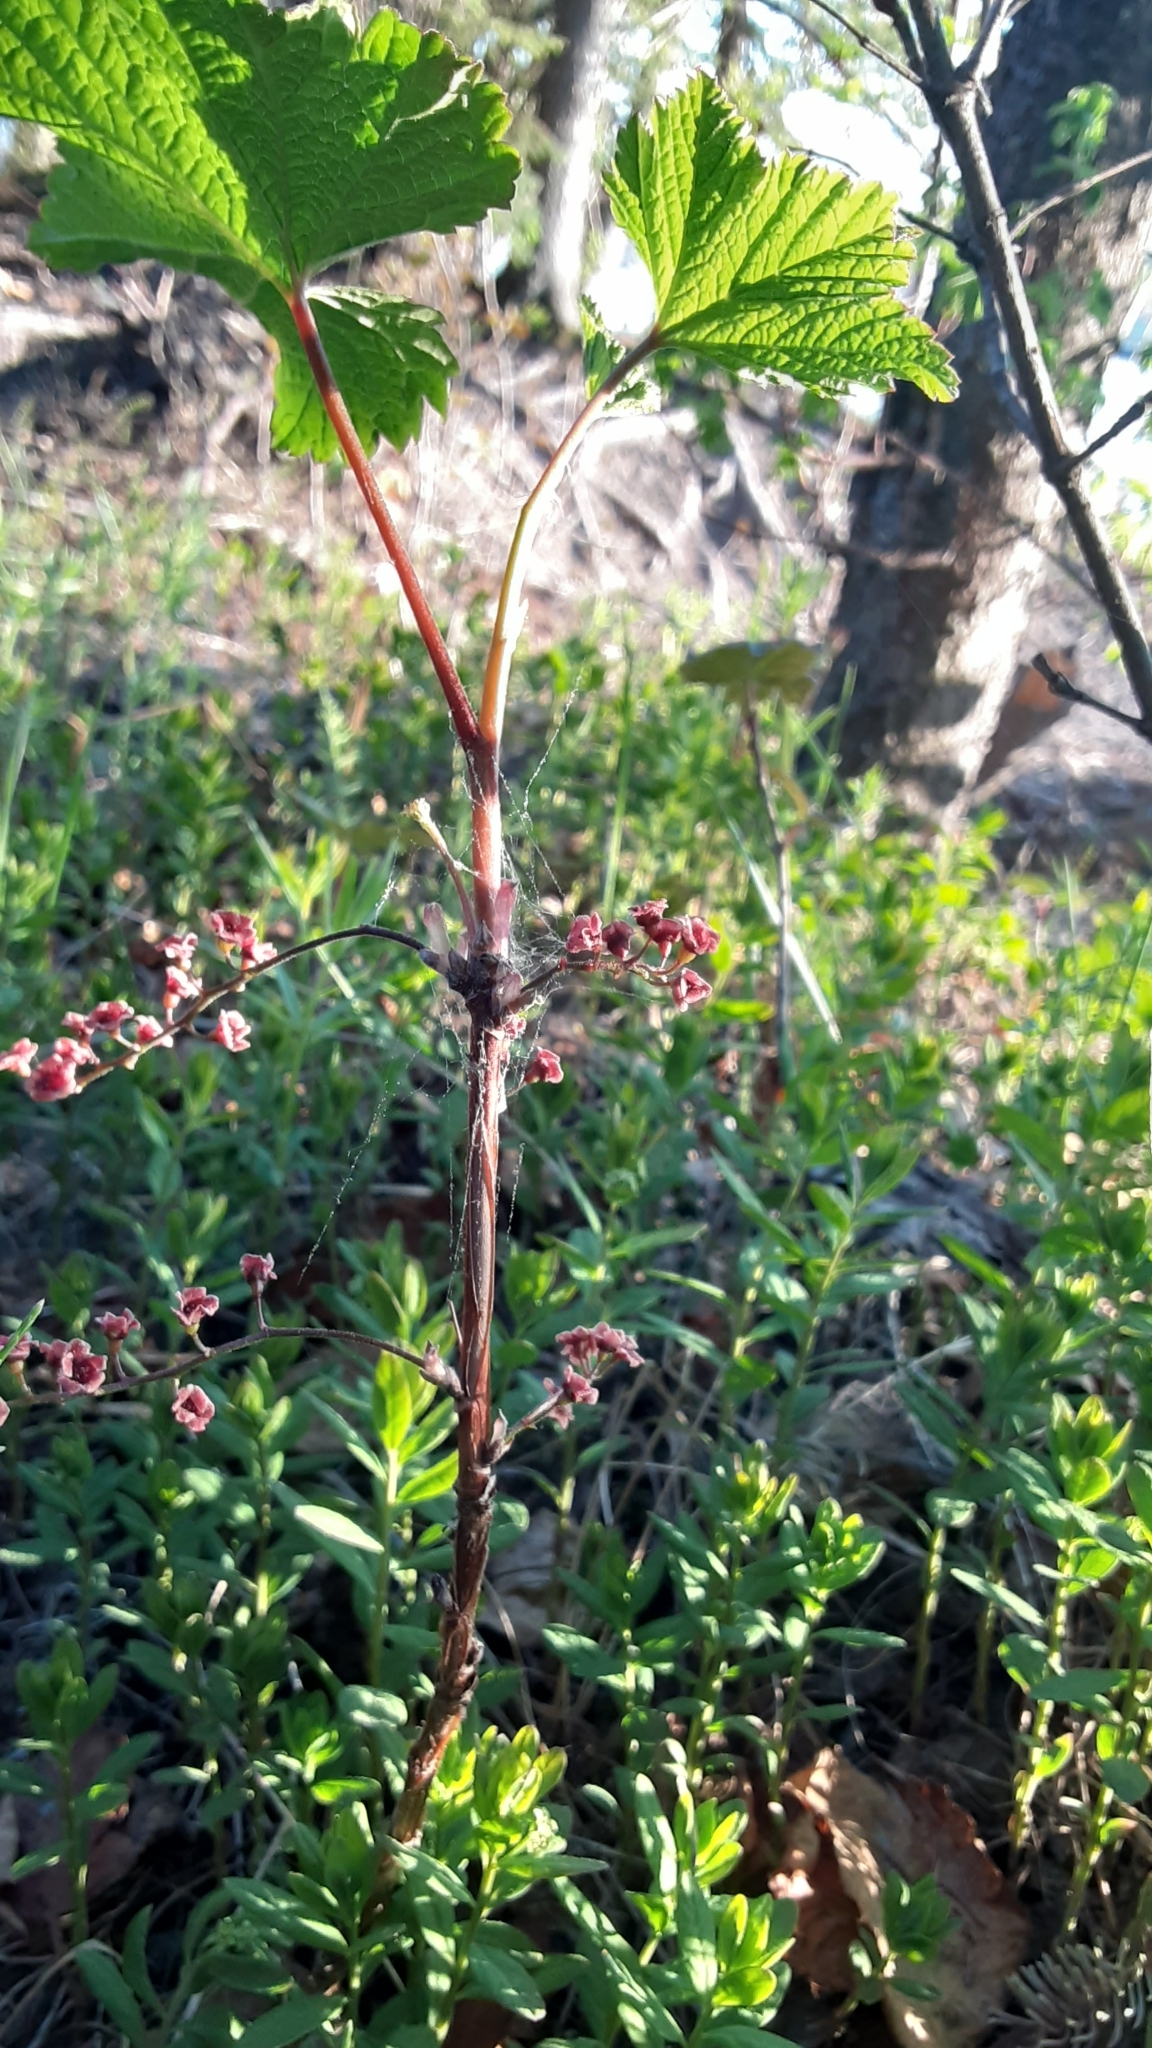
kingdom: Plantae
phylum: Tracheophyta
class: Magnoliopsida
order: Saxifragales
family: Grossulariaceae
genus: Ribes
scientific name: Ribes triste
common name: Swamp red currant
